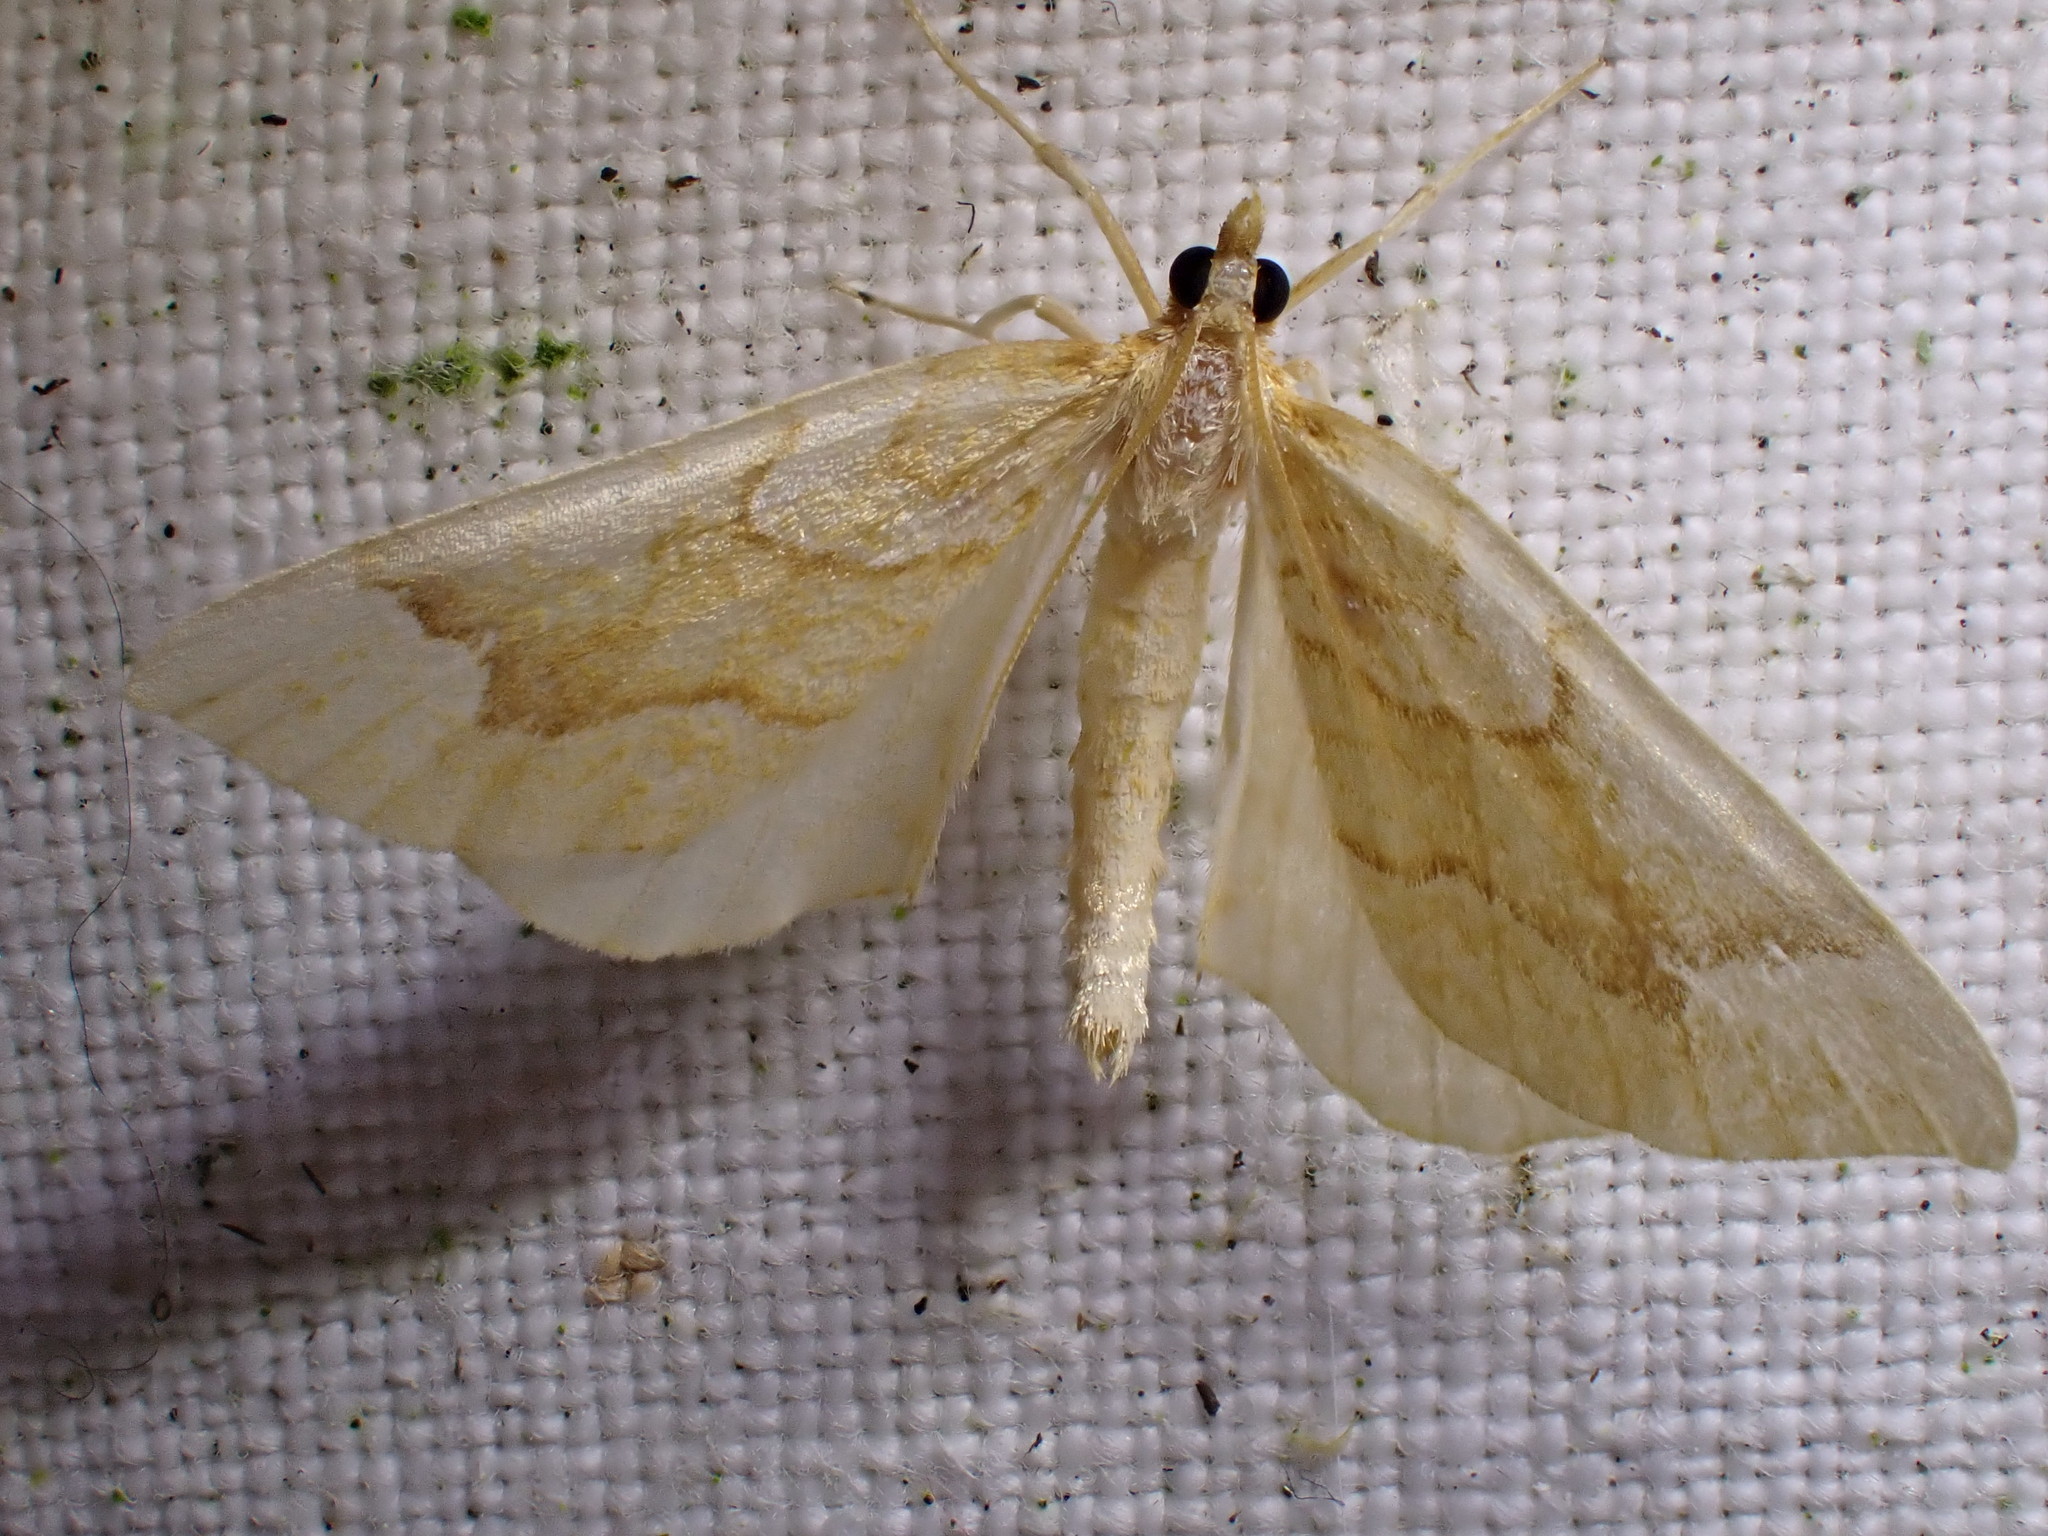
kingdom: Animalia
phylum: Arthropoda
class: Insecta
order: Lepidoptera
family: Geometridae
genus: Eulithis
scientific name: Eulithis pyraliata
